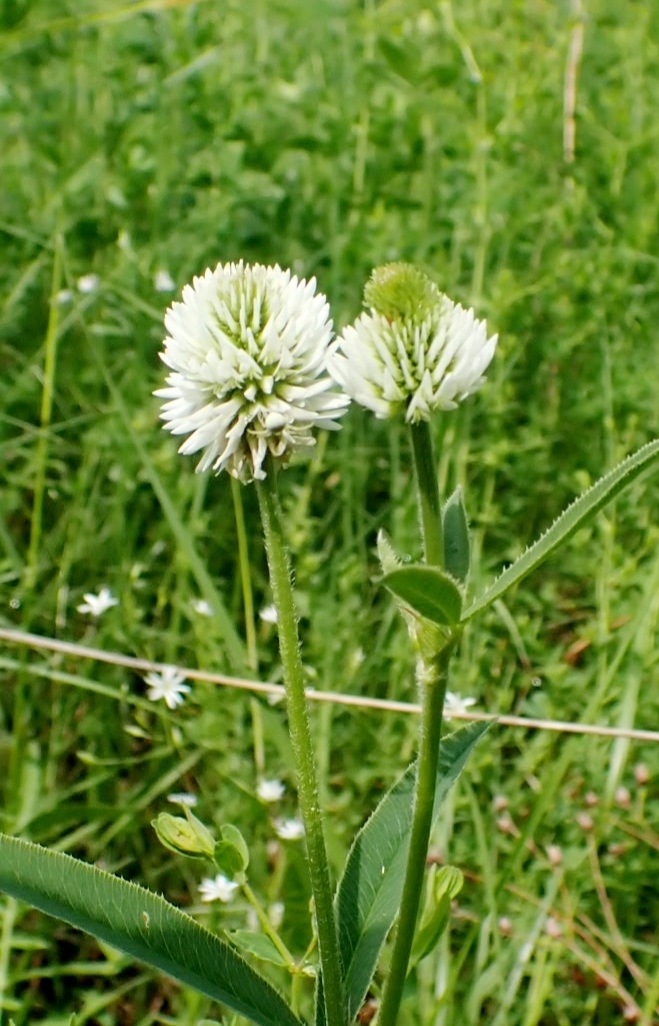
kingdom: Plantae
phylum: Tracheophyta
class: Magnoliopsida
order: Fabales
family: Fabaceae
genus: Trifolium
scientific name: Trifolium montanum
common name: Mountain clover
